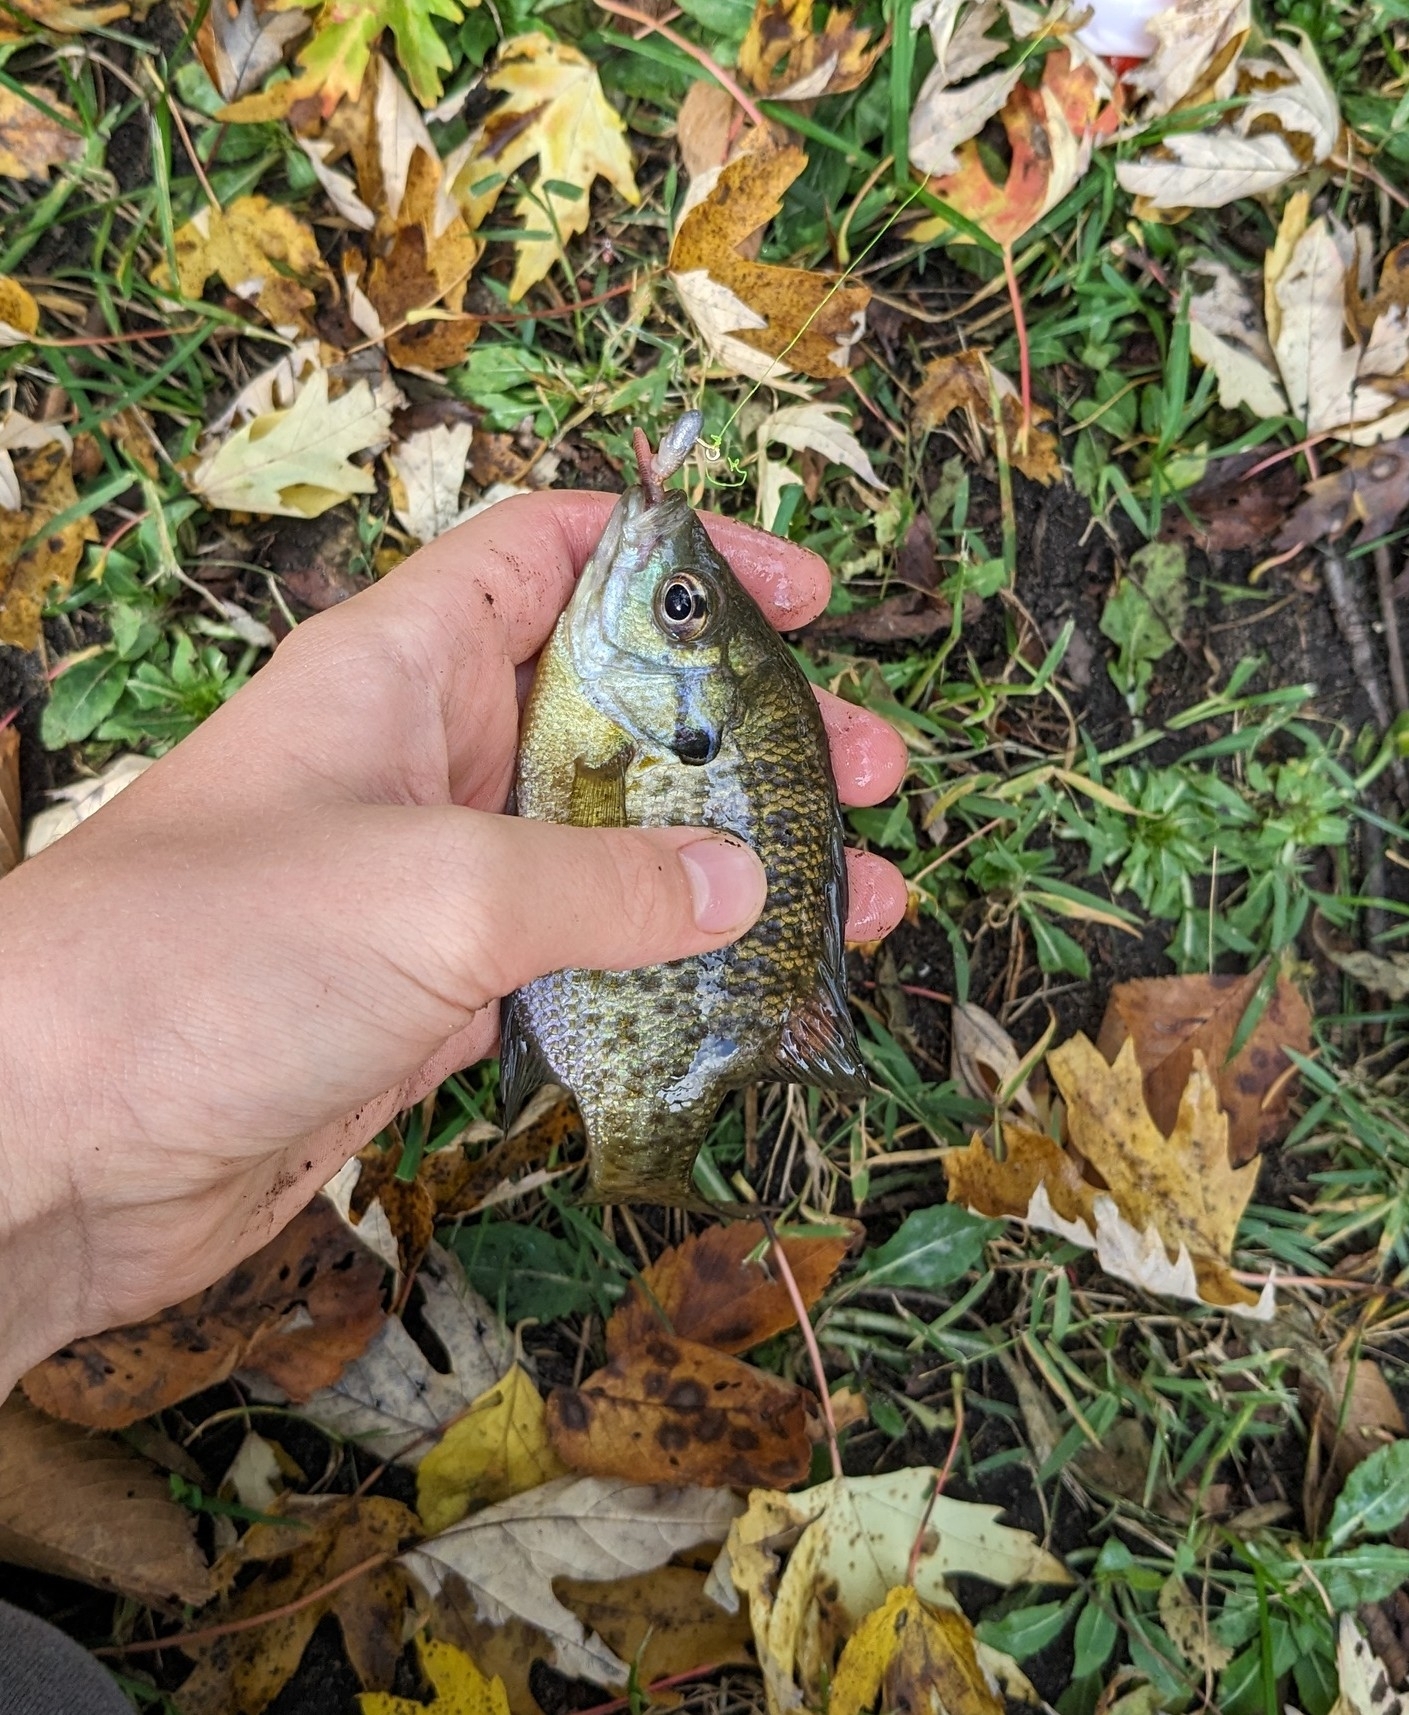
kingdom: Animalia
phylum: Chordata
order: Perciformes
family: Centrarchidae
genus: Lepomis
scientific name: Lepomis macrochirus
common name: Bluegill
